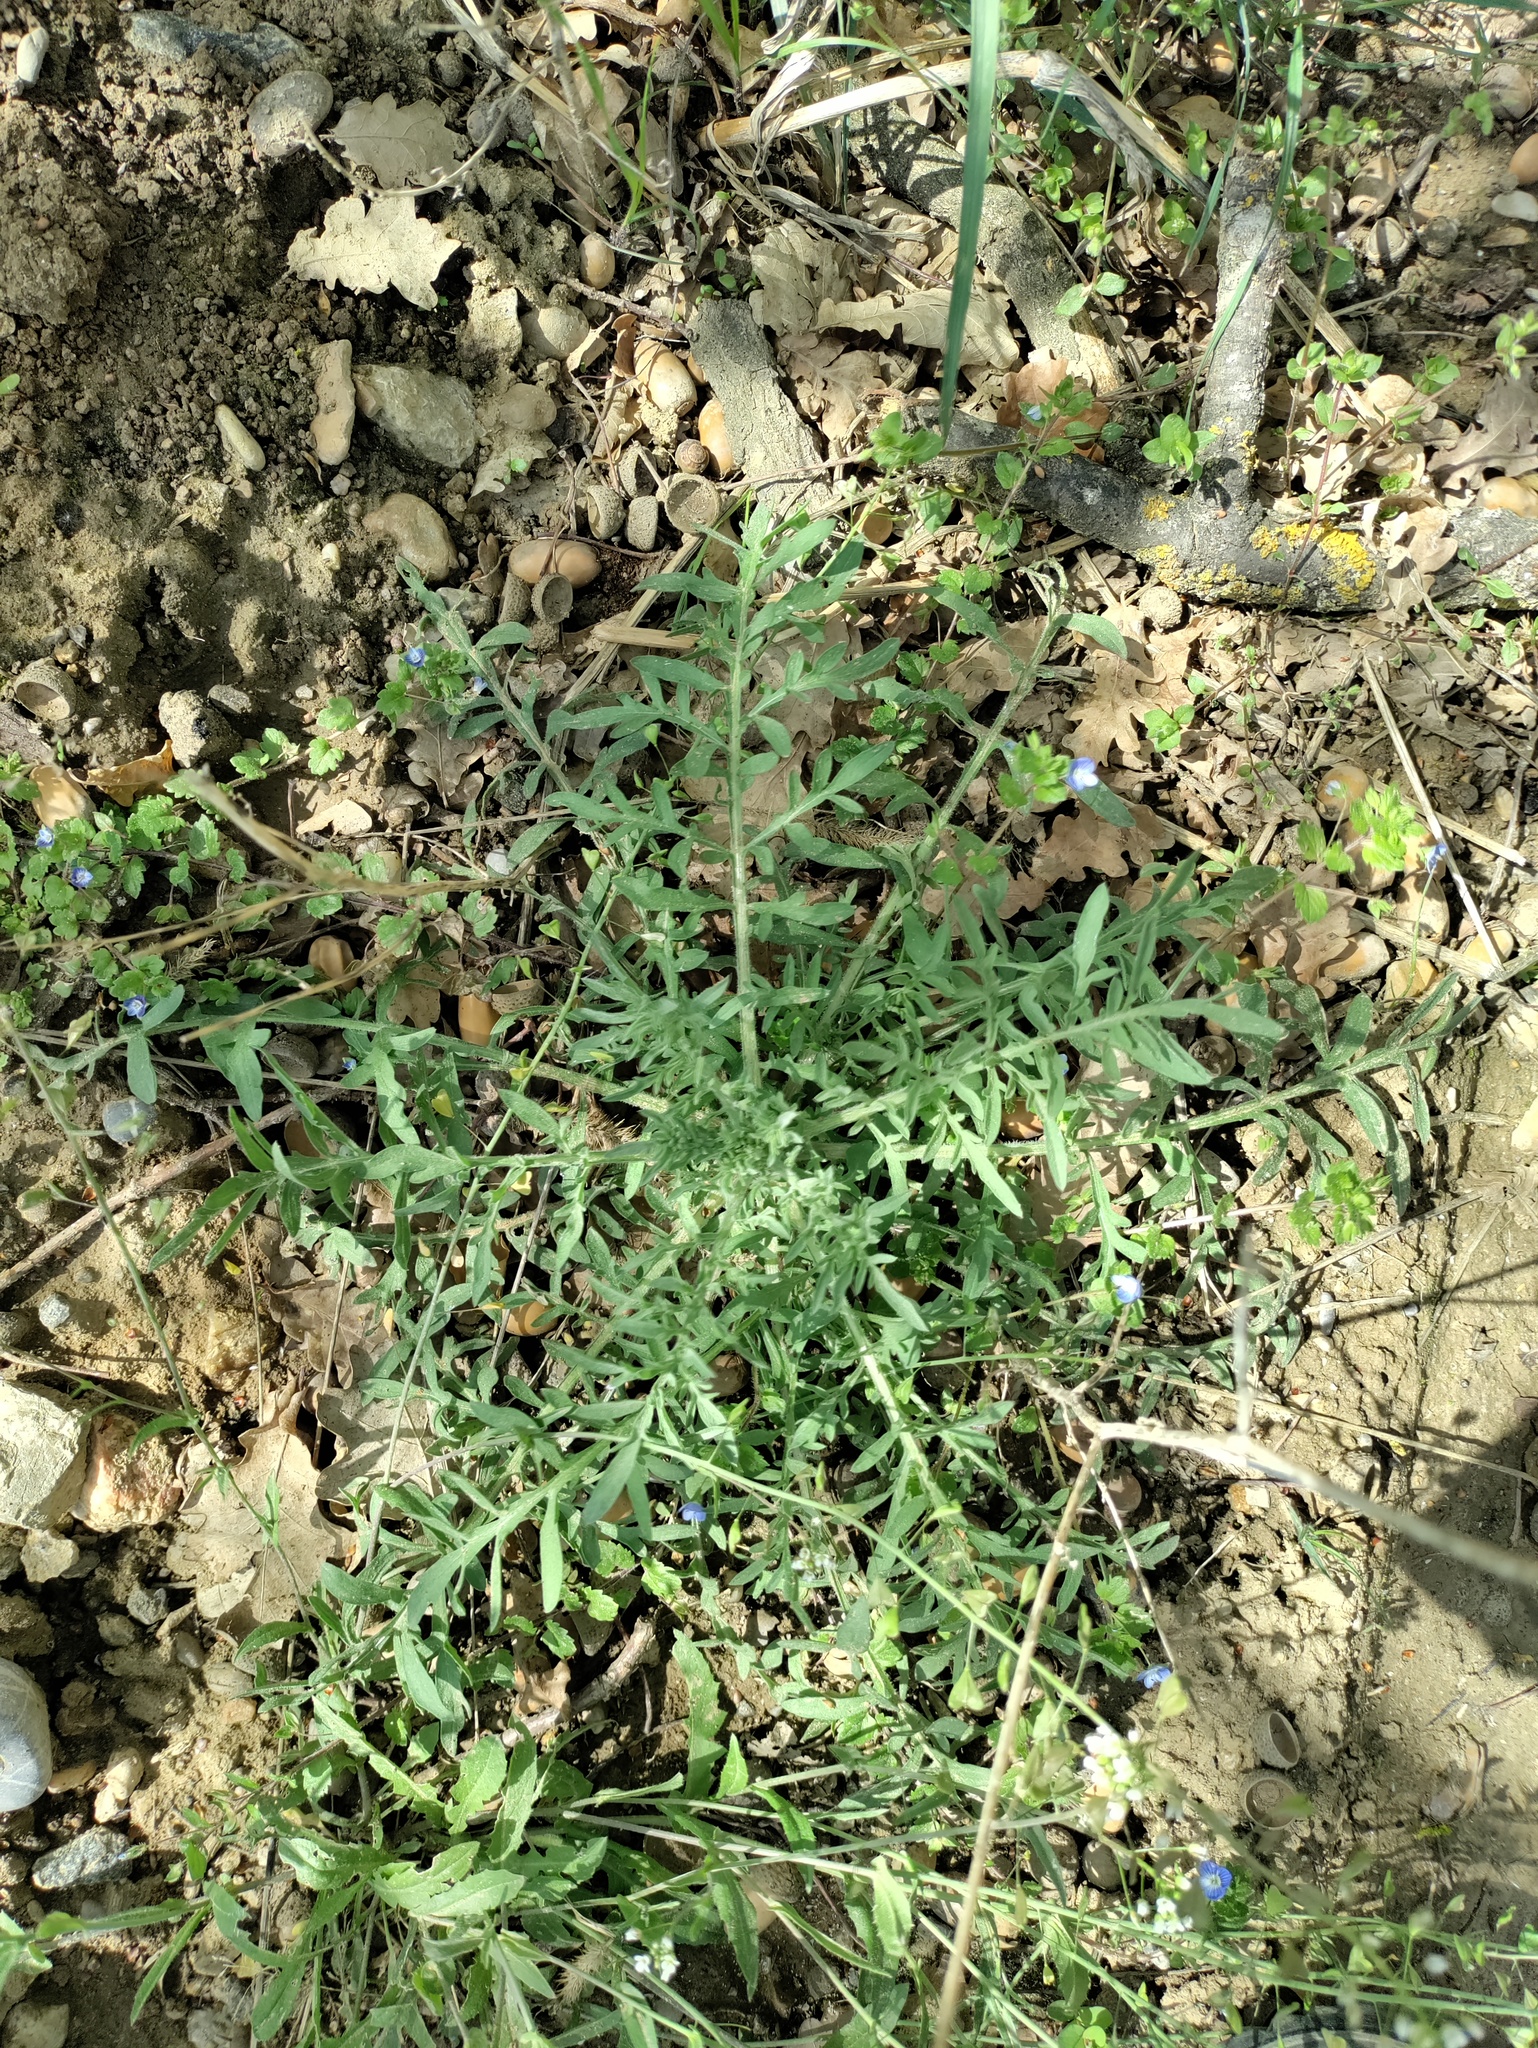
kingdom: Plantae
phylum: Tracheophyta
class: Magnoliopsida
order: Asterales
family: Asteraceae
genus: Centaurea
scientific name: Centaurea stoebe
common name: Spotted knapweed
